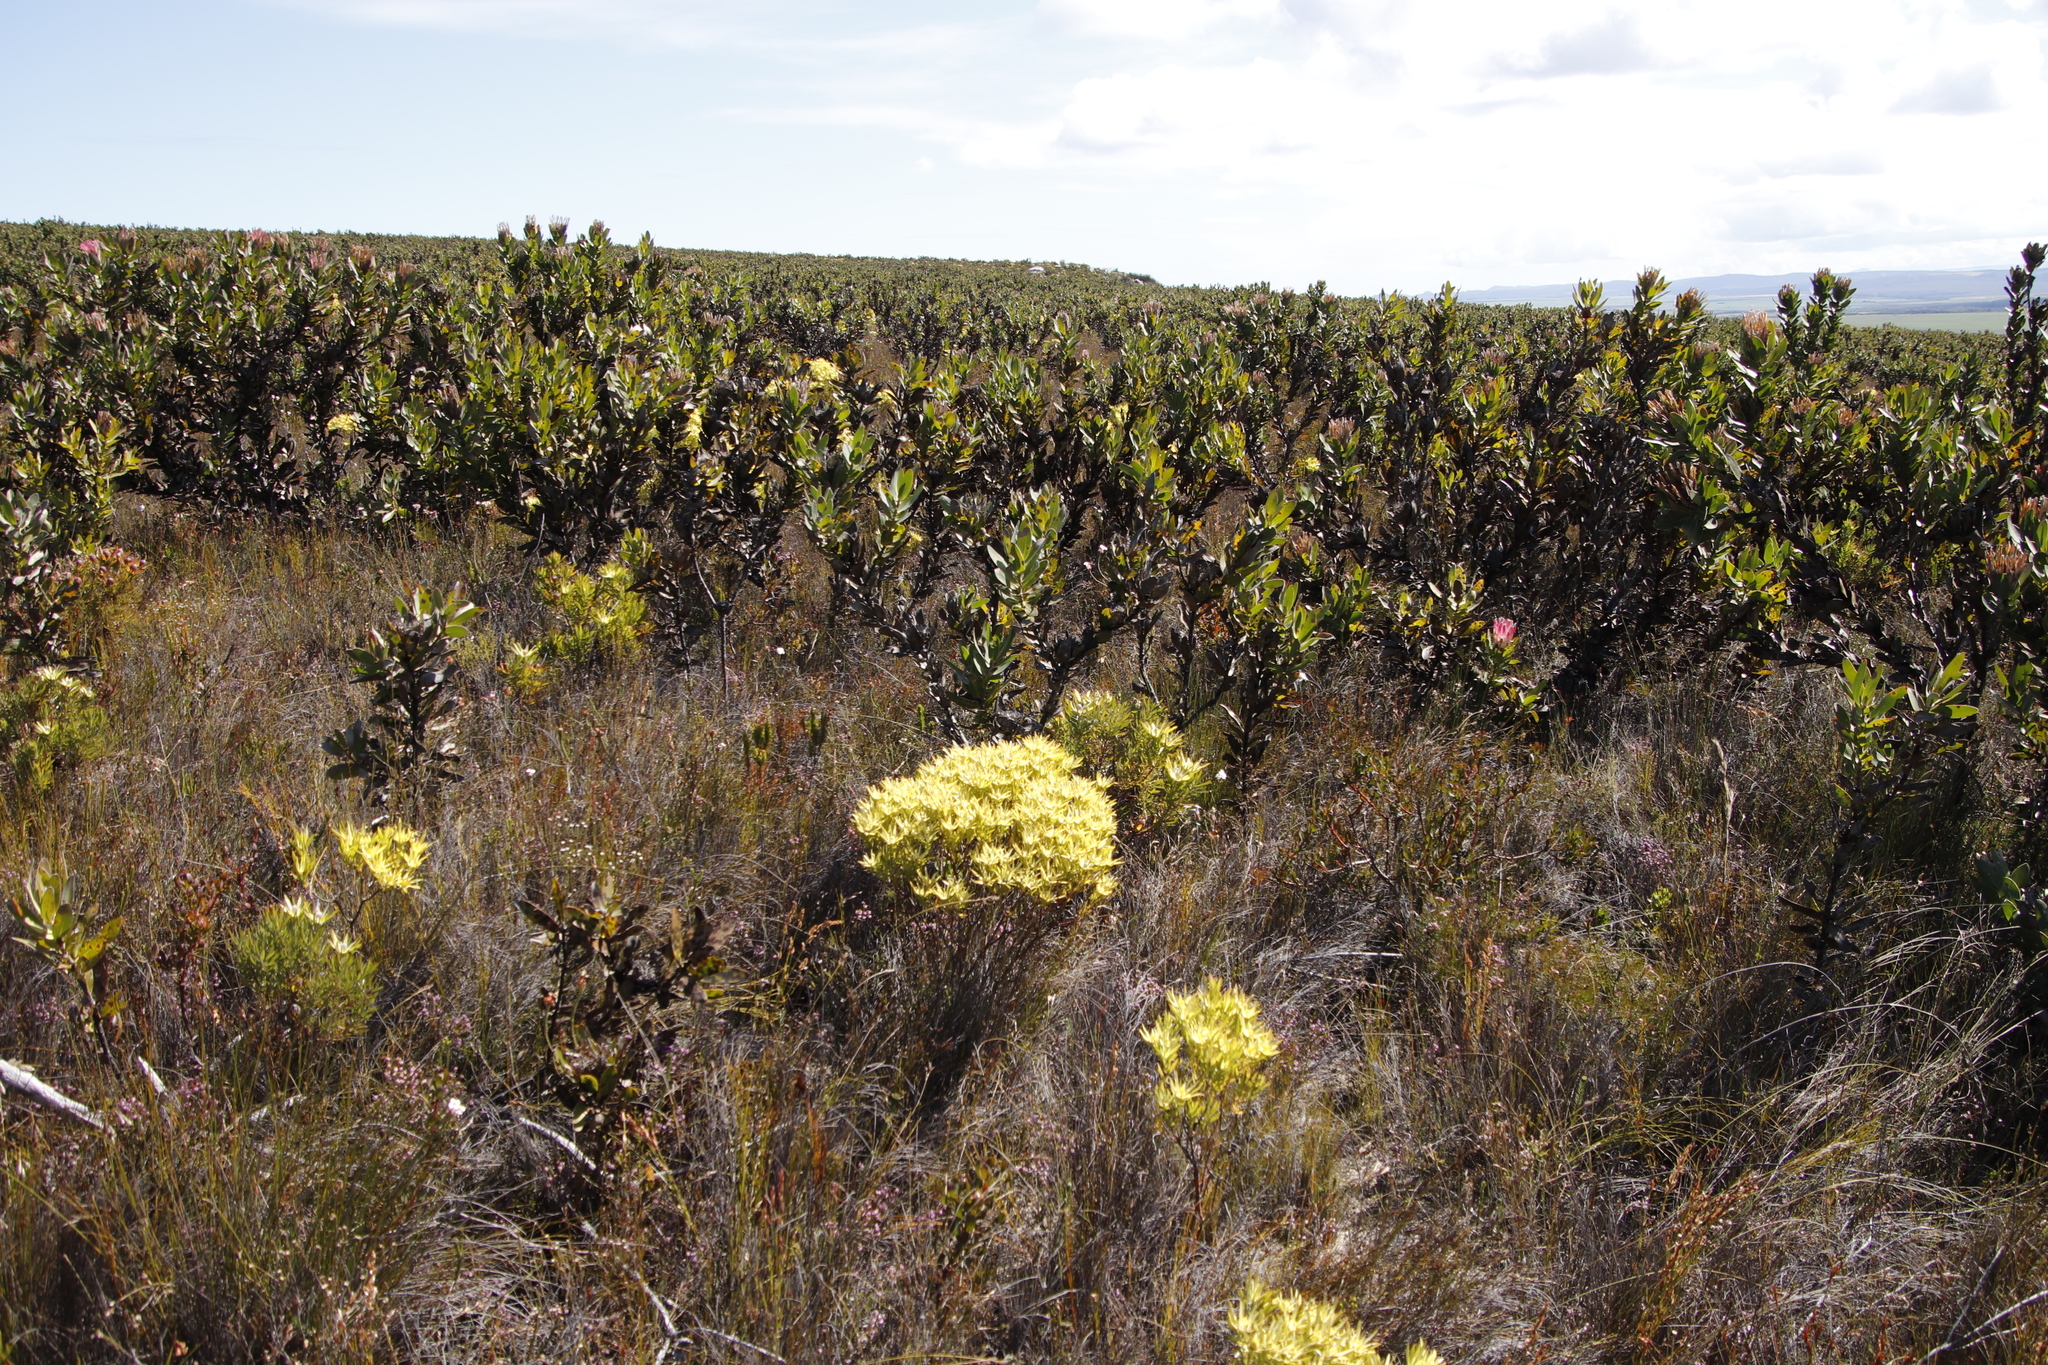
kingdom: Plantae
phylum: Tracheophyta
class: Magnoliopsida
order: Proteales
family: Proteaceae
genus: Leucadendron
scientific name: Leucadendron xanthoconus
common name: Sickle-leaf conebush
